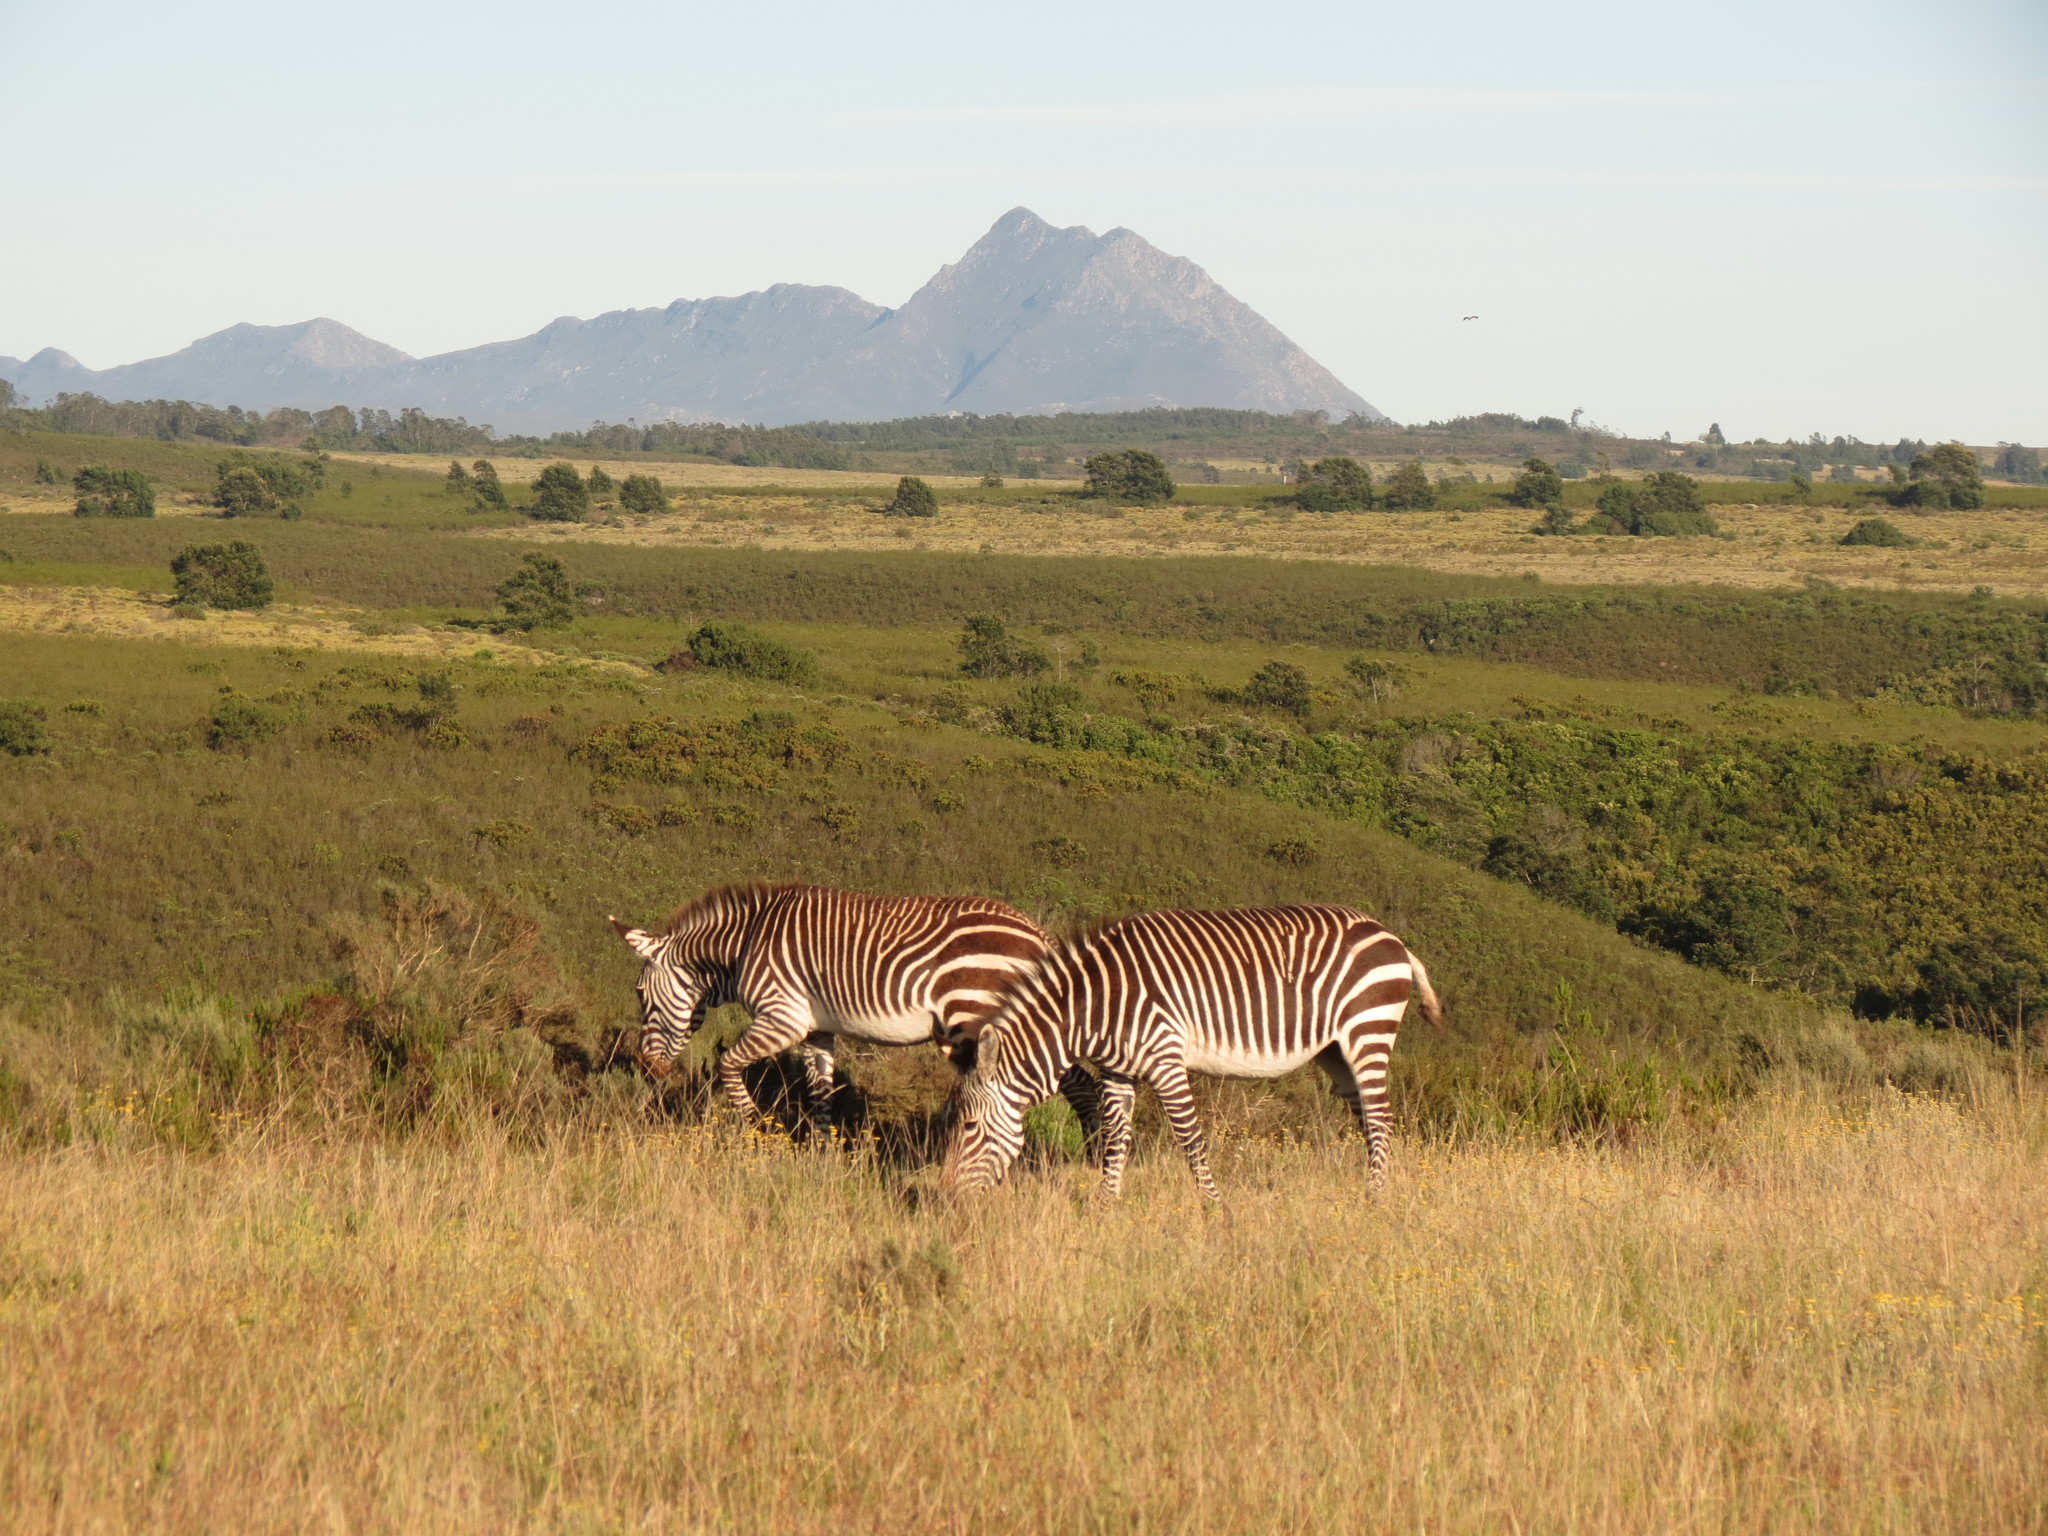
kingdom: Animalia
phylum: Chordata
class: Mammalia
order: Perissodactyla
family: Equidae
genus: Equus
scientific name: Equus zebra
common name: Mountain zebra
